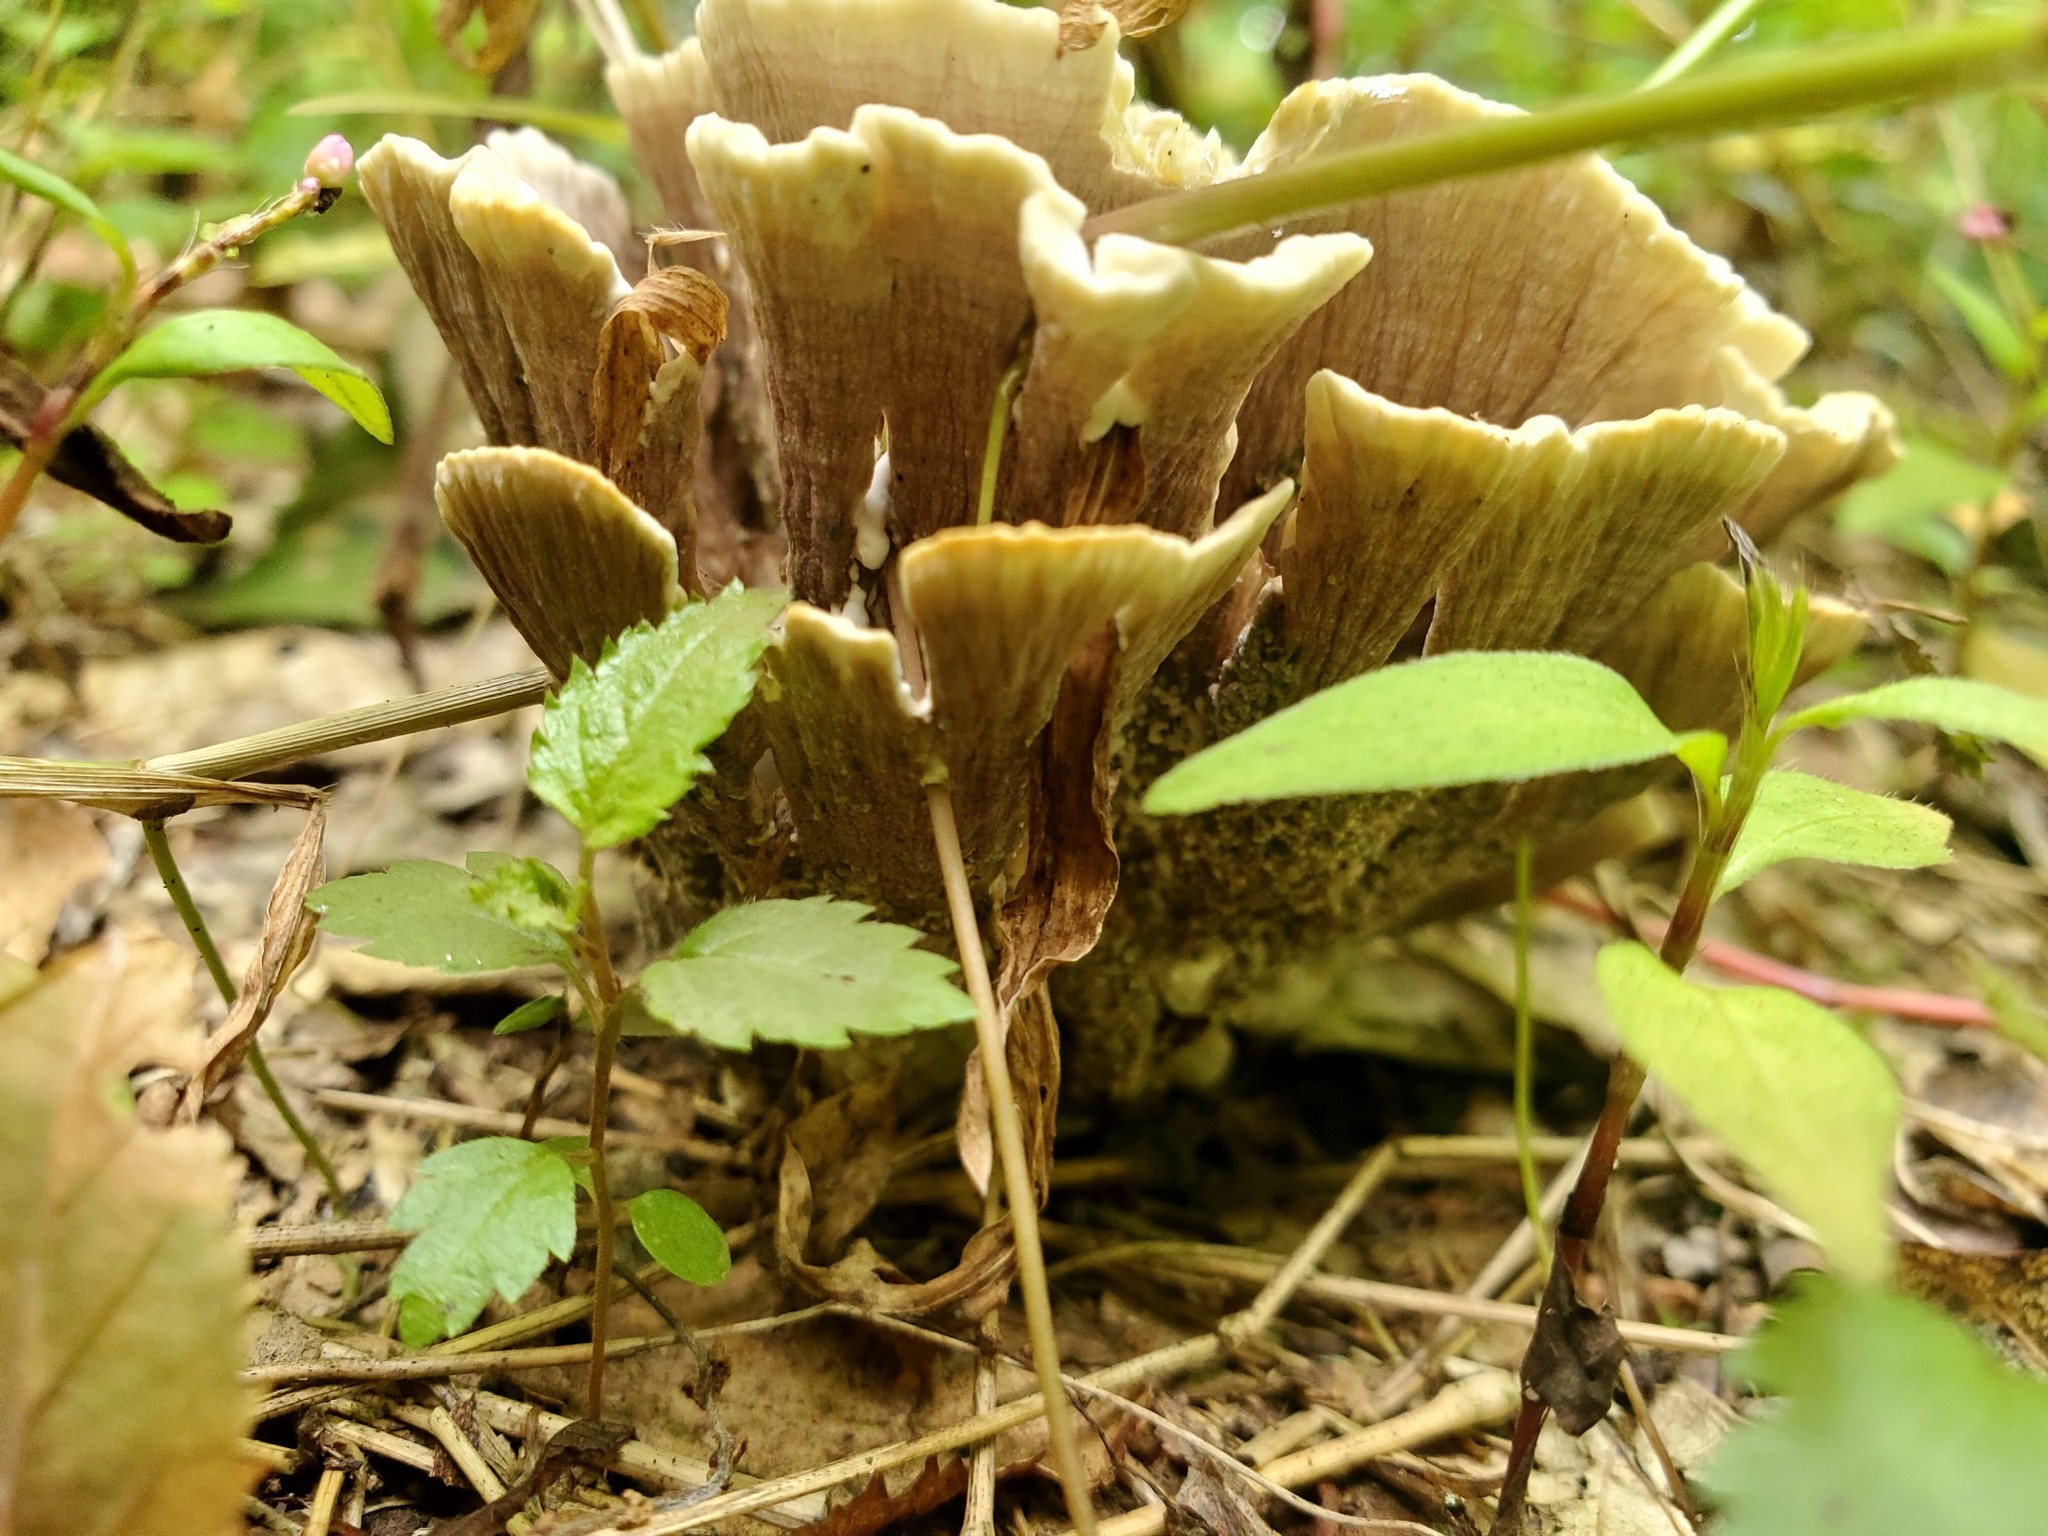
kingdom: Fungi
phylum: Basidiomycota
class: Agaricomycetes
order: Thelephorales
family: Thelephoraceae
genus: Thelephora
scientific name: Thelephora vialis
